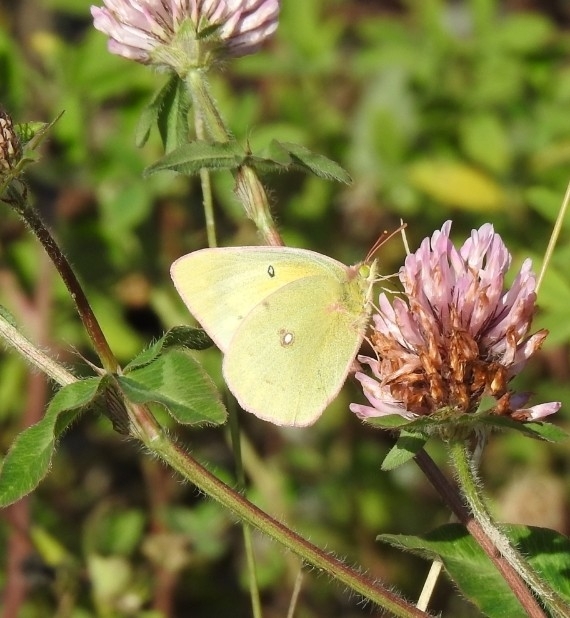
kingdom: Animalia
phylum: Arthropoda
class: Insecta
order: Lepidoptera
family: Pieridae
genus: Colias
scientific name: Colias philodice
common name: Clouded sulphur
